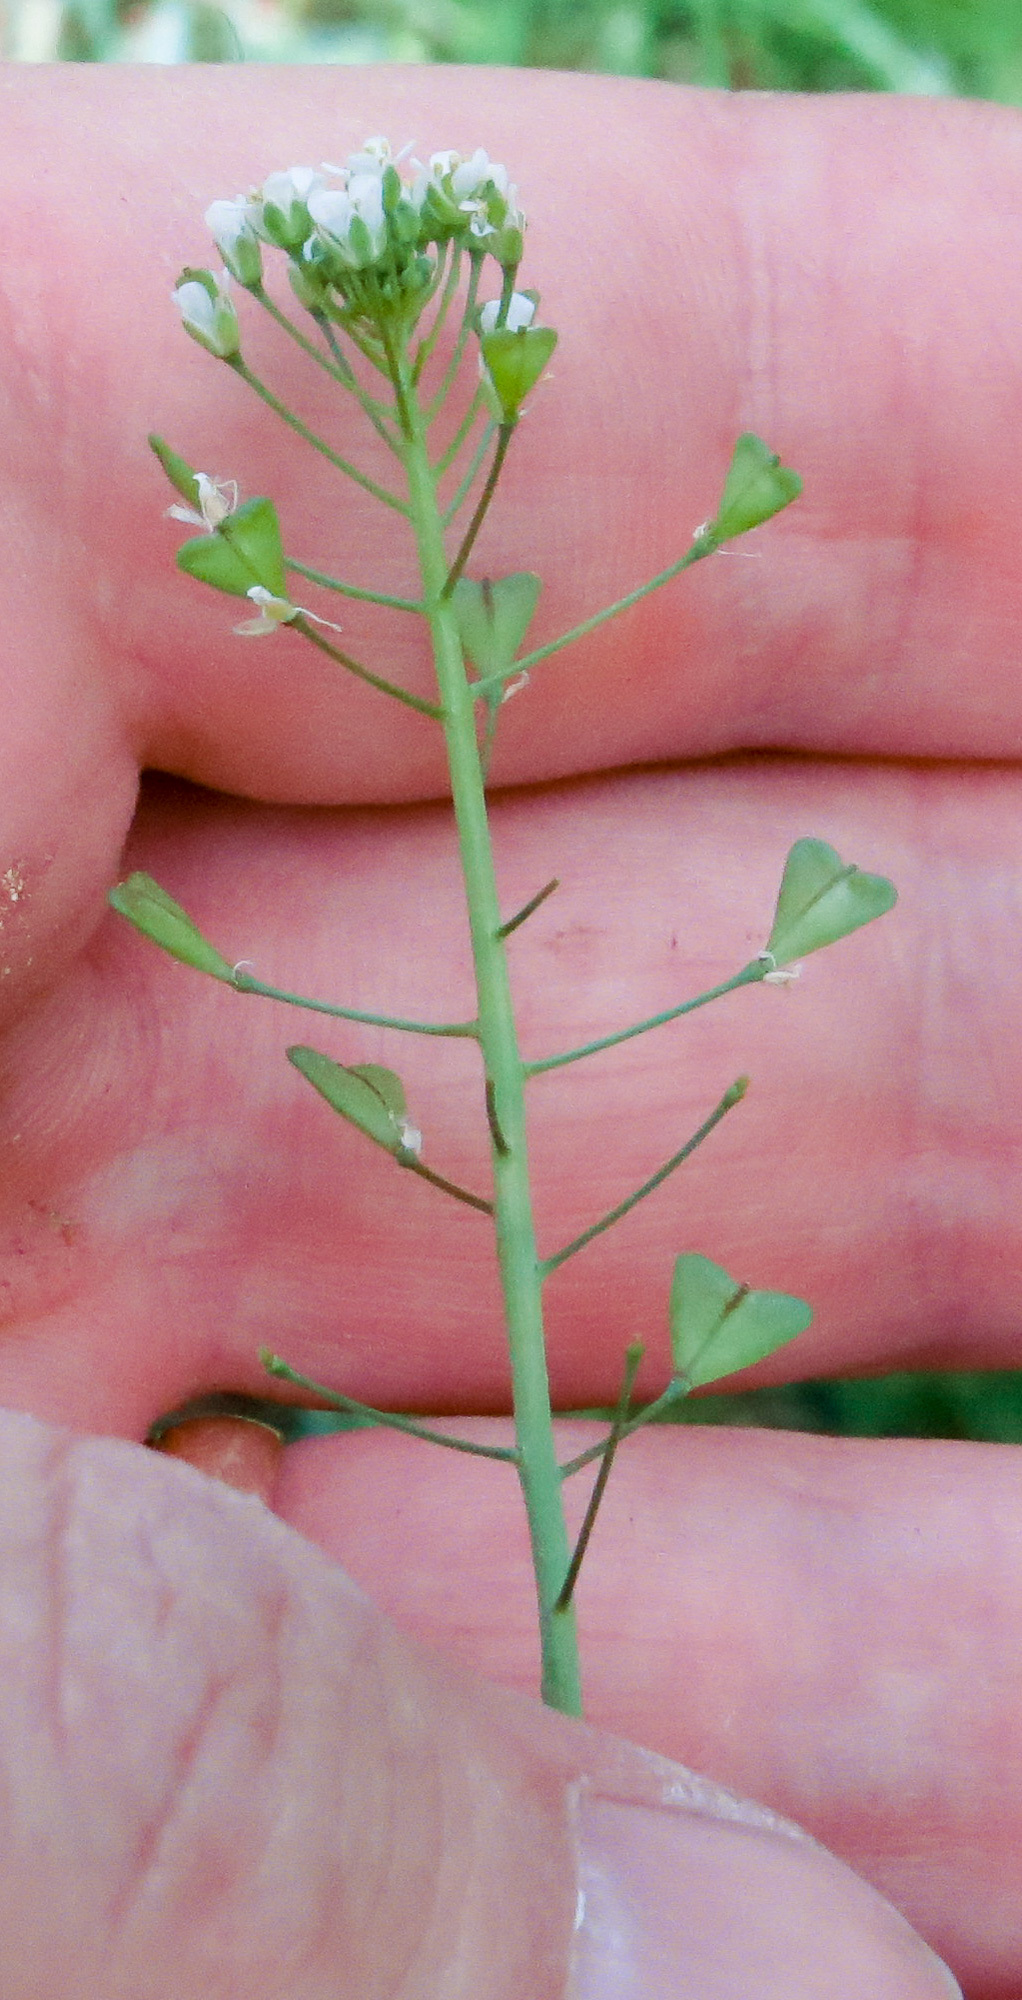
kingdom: Plantae
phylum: Tracheophyta
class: Magnoliopsida
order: Brassicales
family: Brassicaceae
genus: Capsella
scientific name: Capsella bursa-pastoris
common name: Shepherd's purse
